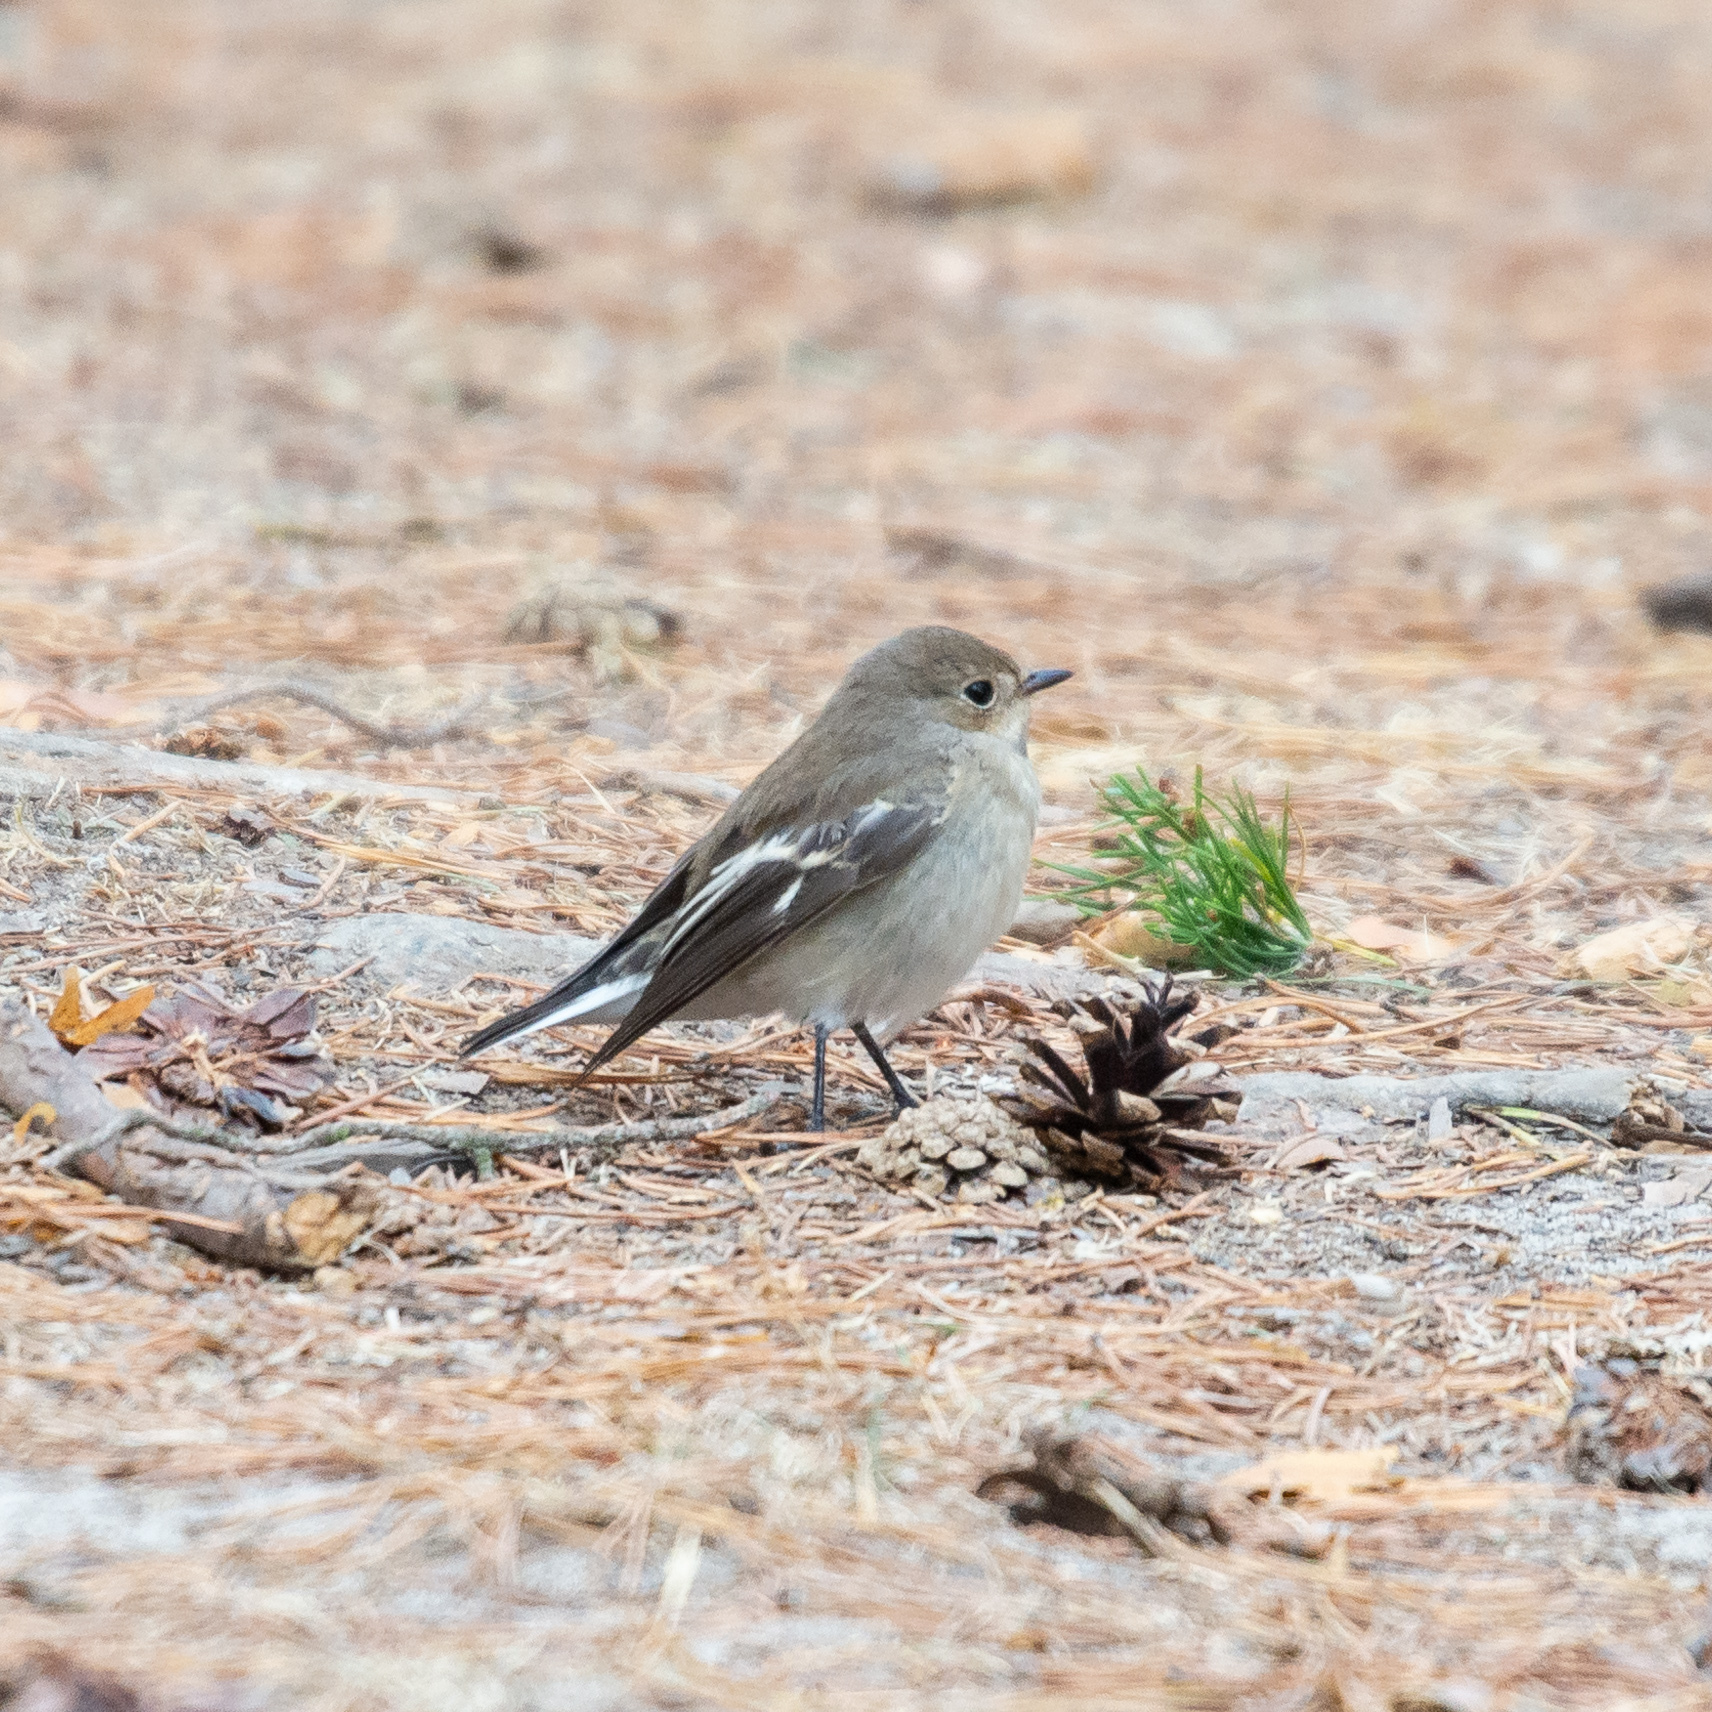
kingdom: Animalia
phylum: Chordata
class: Aves
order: Passeriformes
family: Muscicapidae
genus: Ficedula
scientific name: Ficedula hypoleuca
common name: European pied flycatcher
